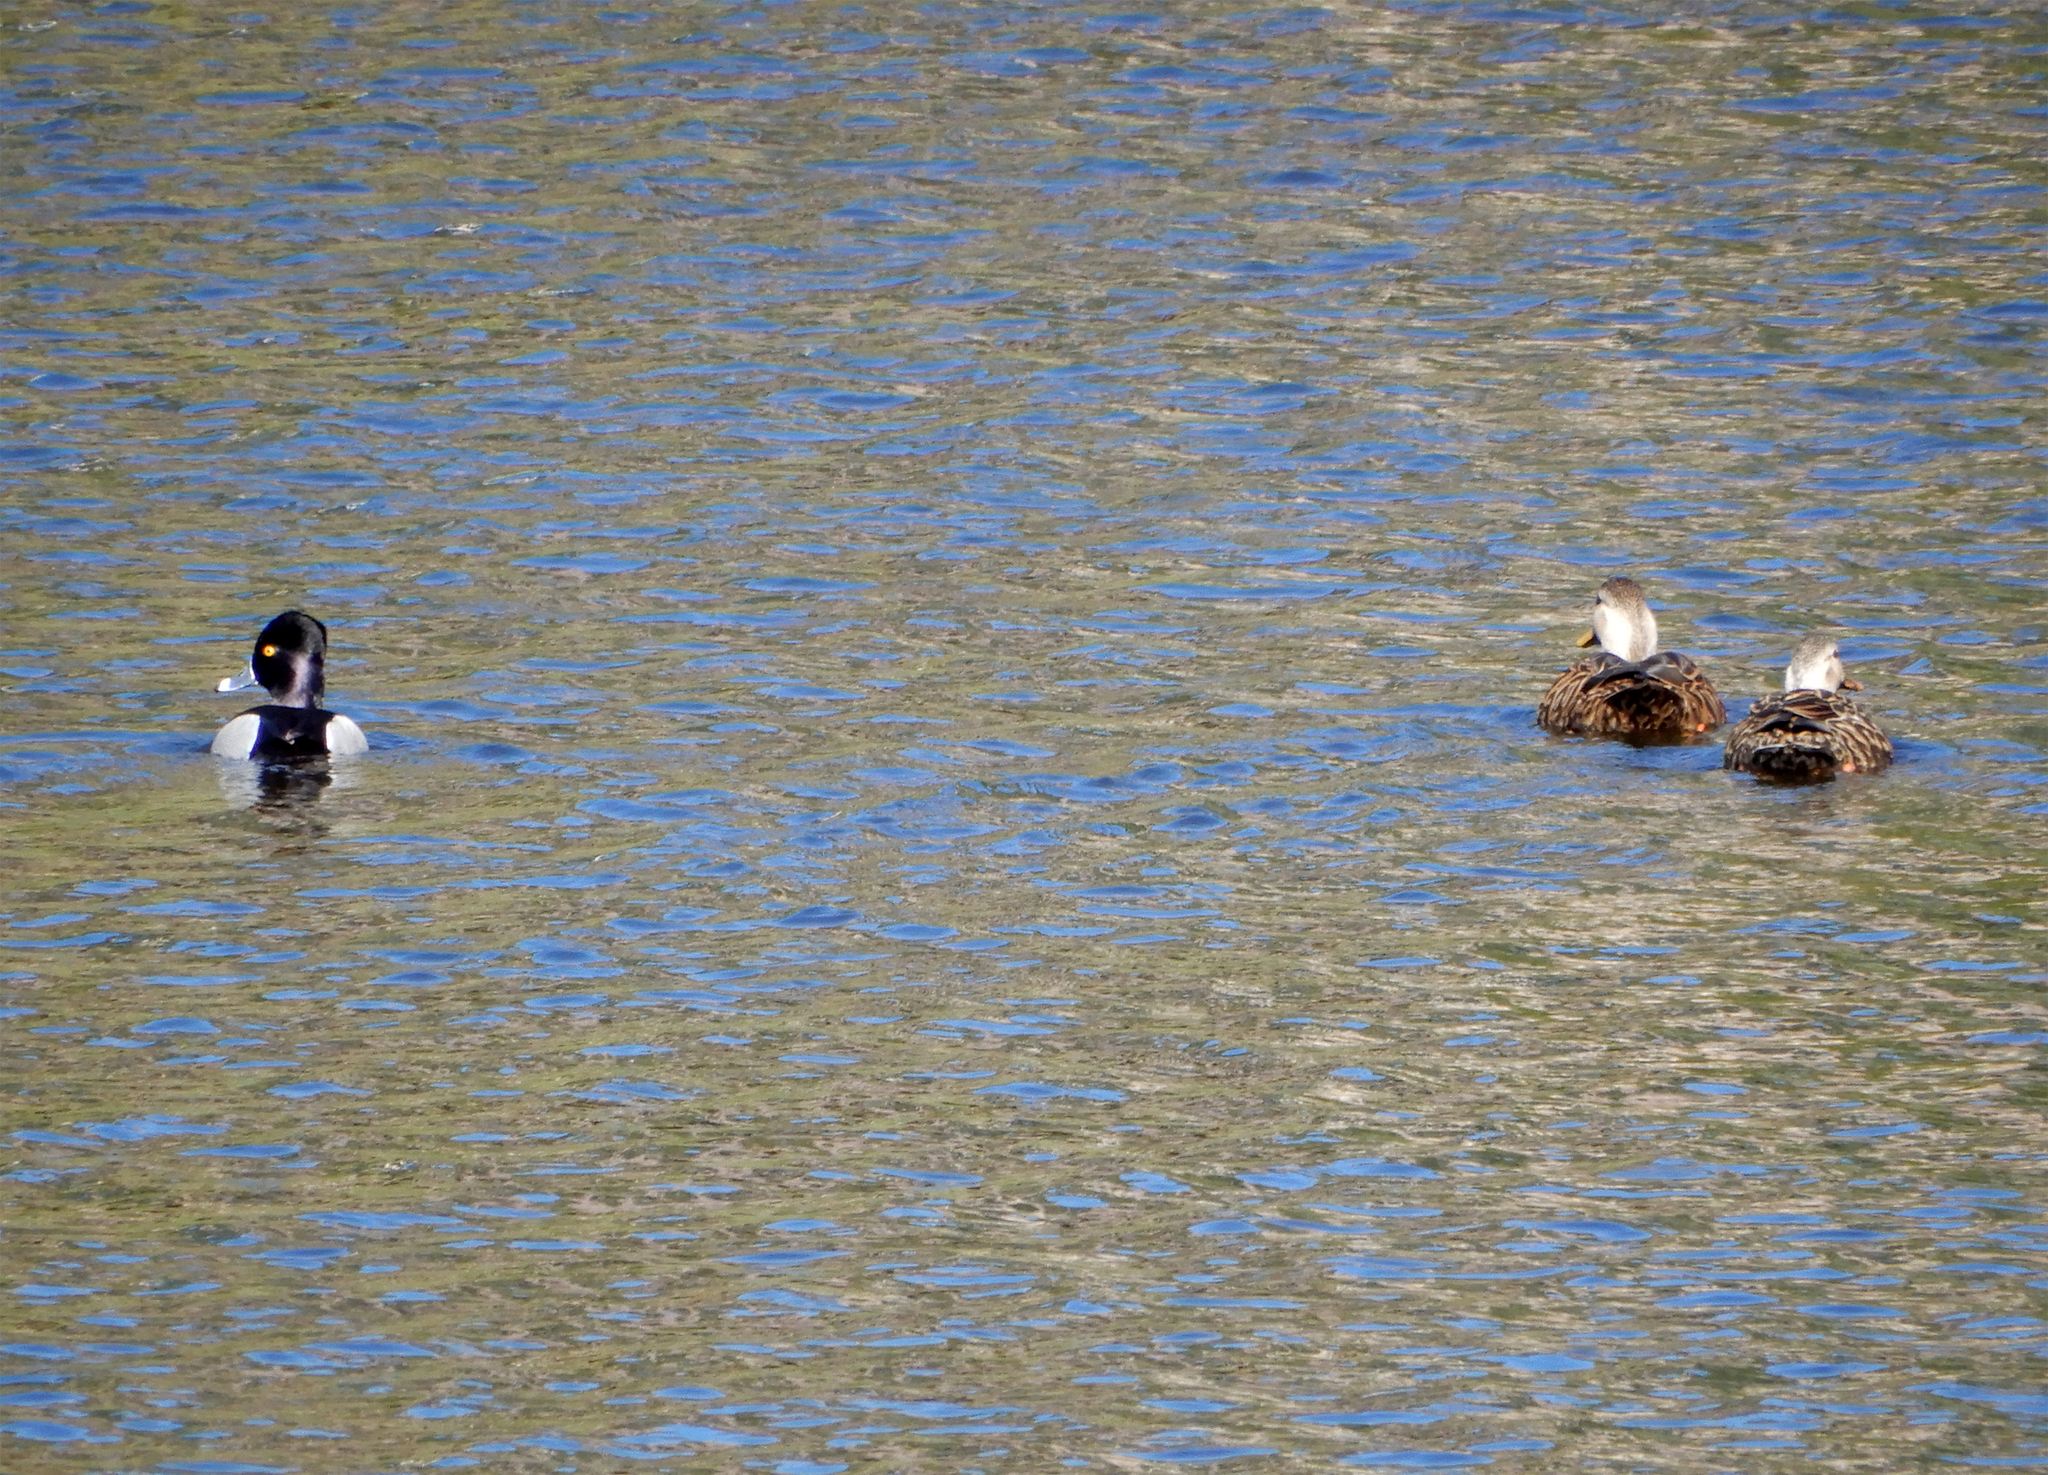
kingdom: Animalia
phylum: Chordata
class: Aves
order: Anseriformes
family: Anatidae
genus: Aythya
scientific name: Aythya collaris
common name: Ring-necked duck
